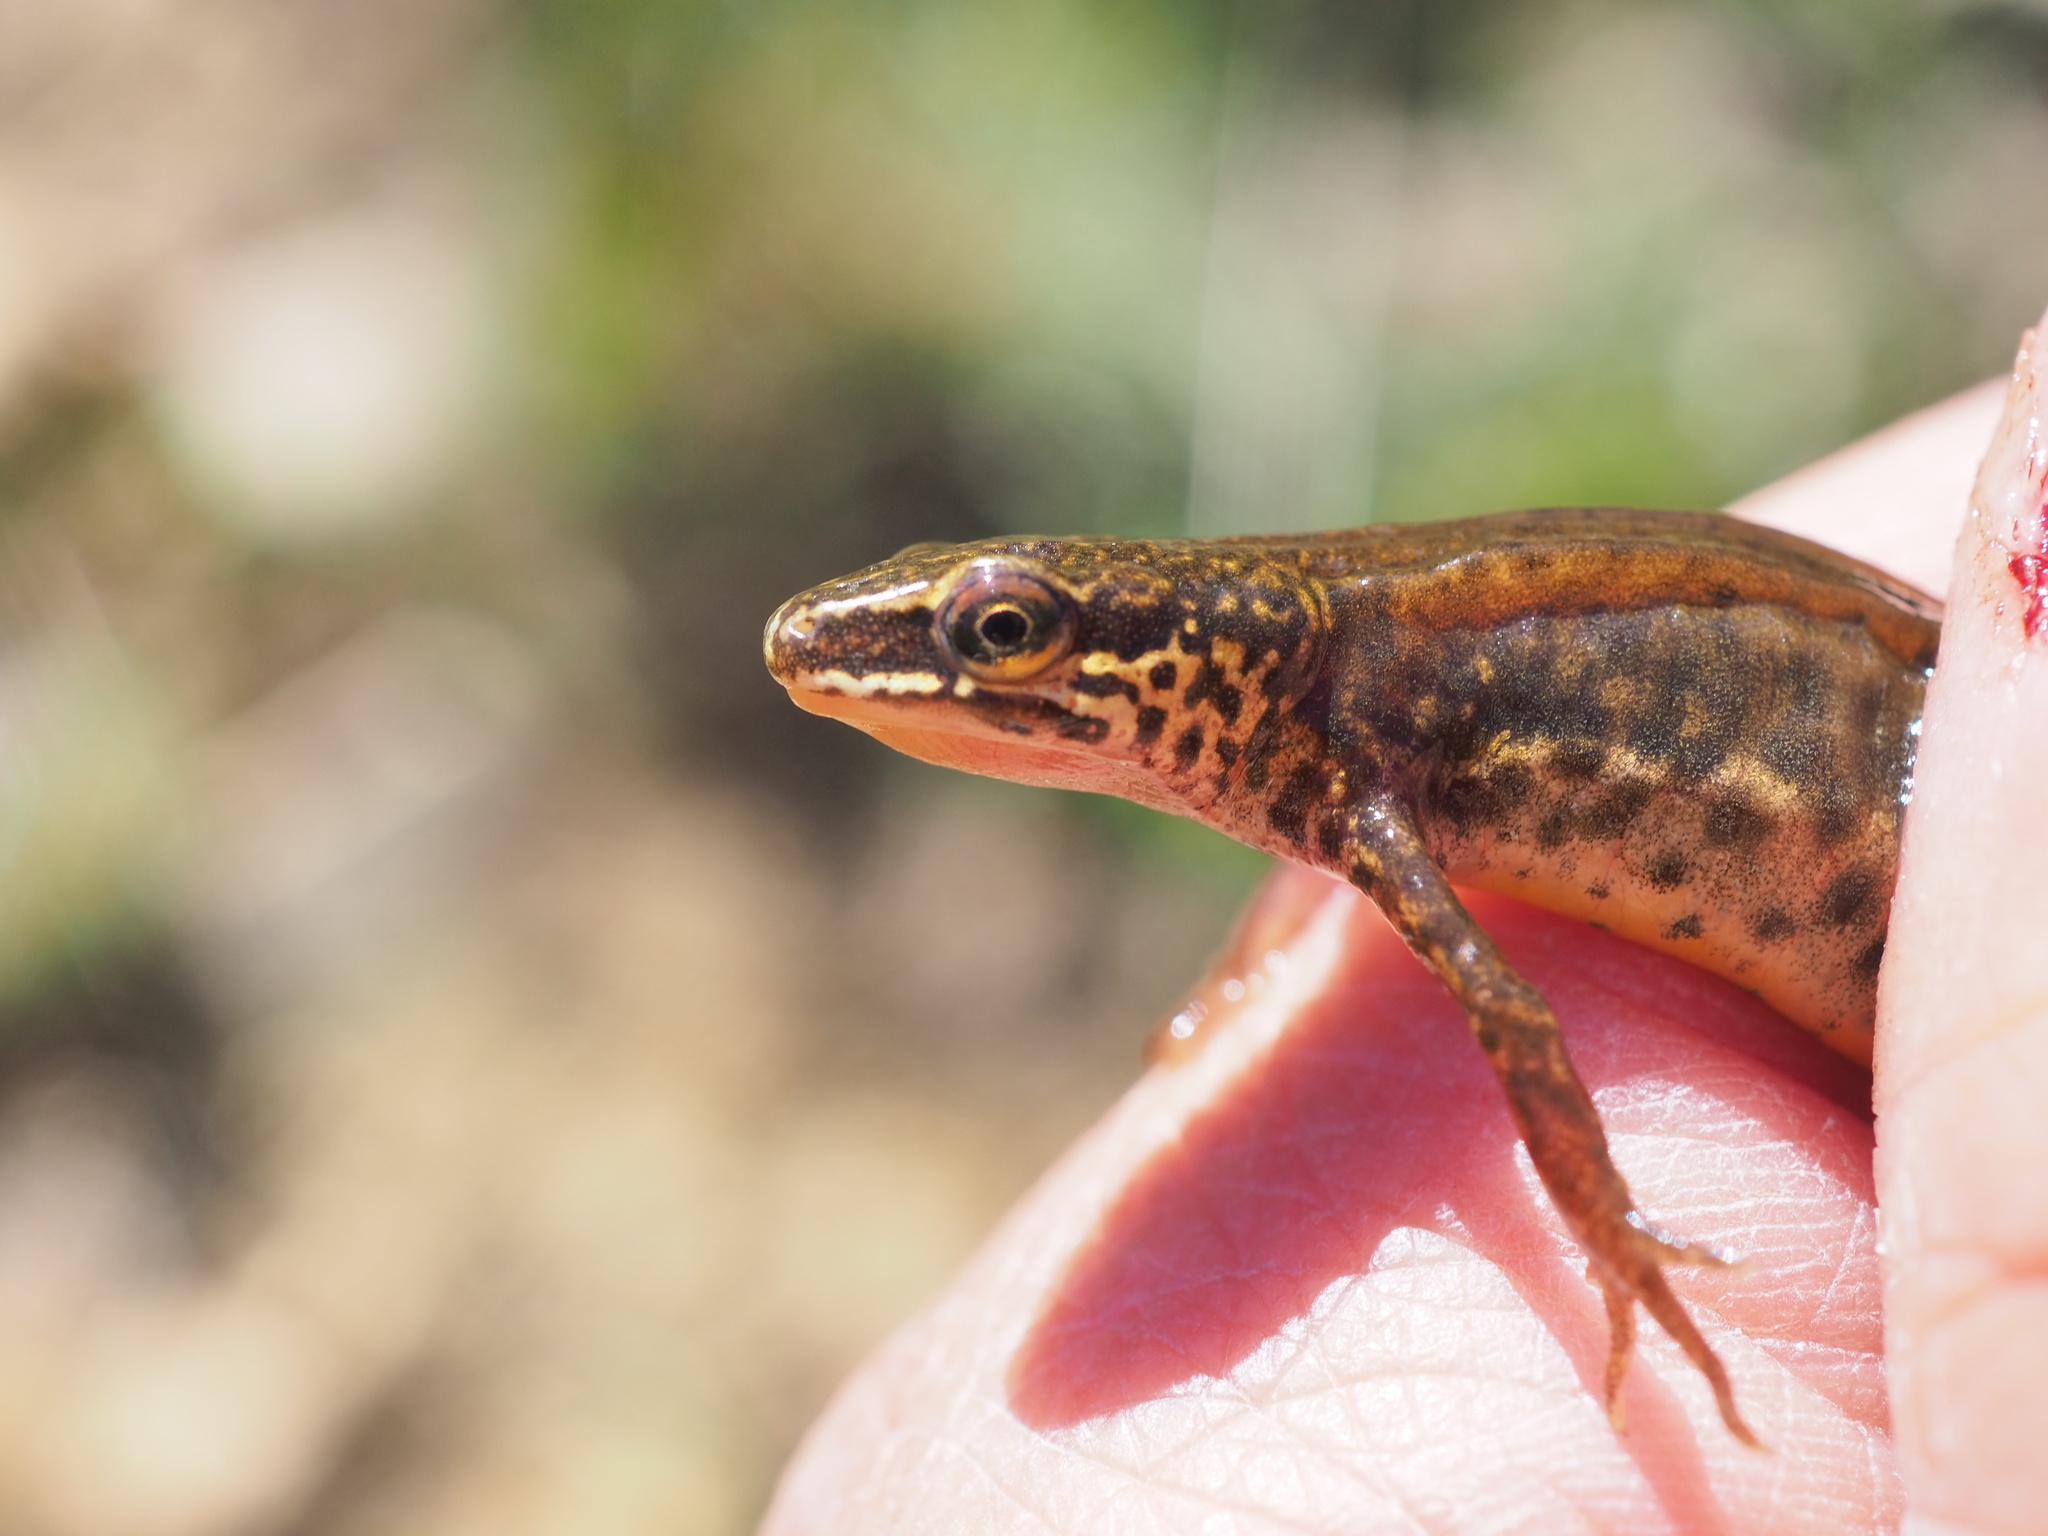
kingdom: Animalia
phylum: Chordata
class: Amphibia
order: Caudata
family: Salamandridae
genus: Lissotriton
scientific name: Lissotriton helveticus
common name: Palmate newt
